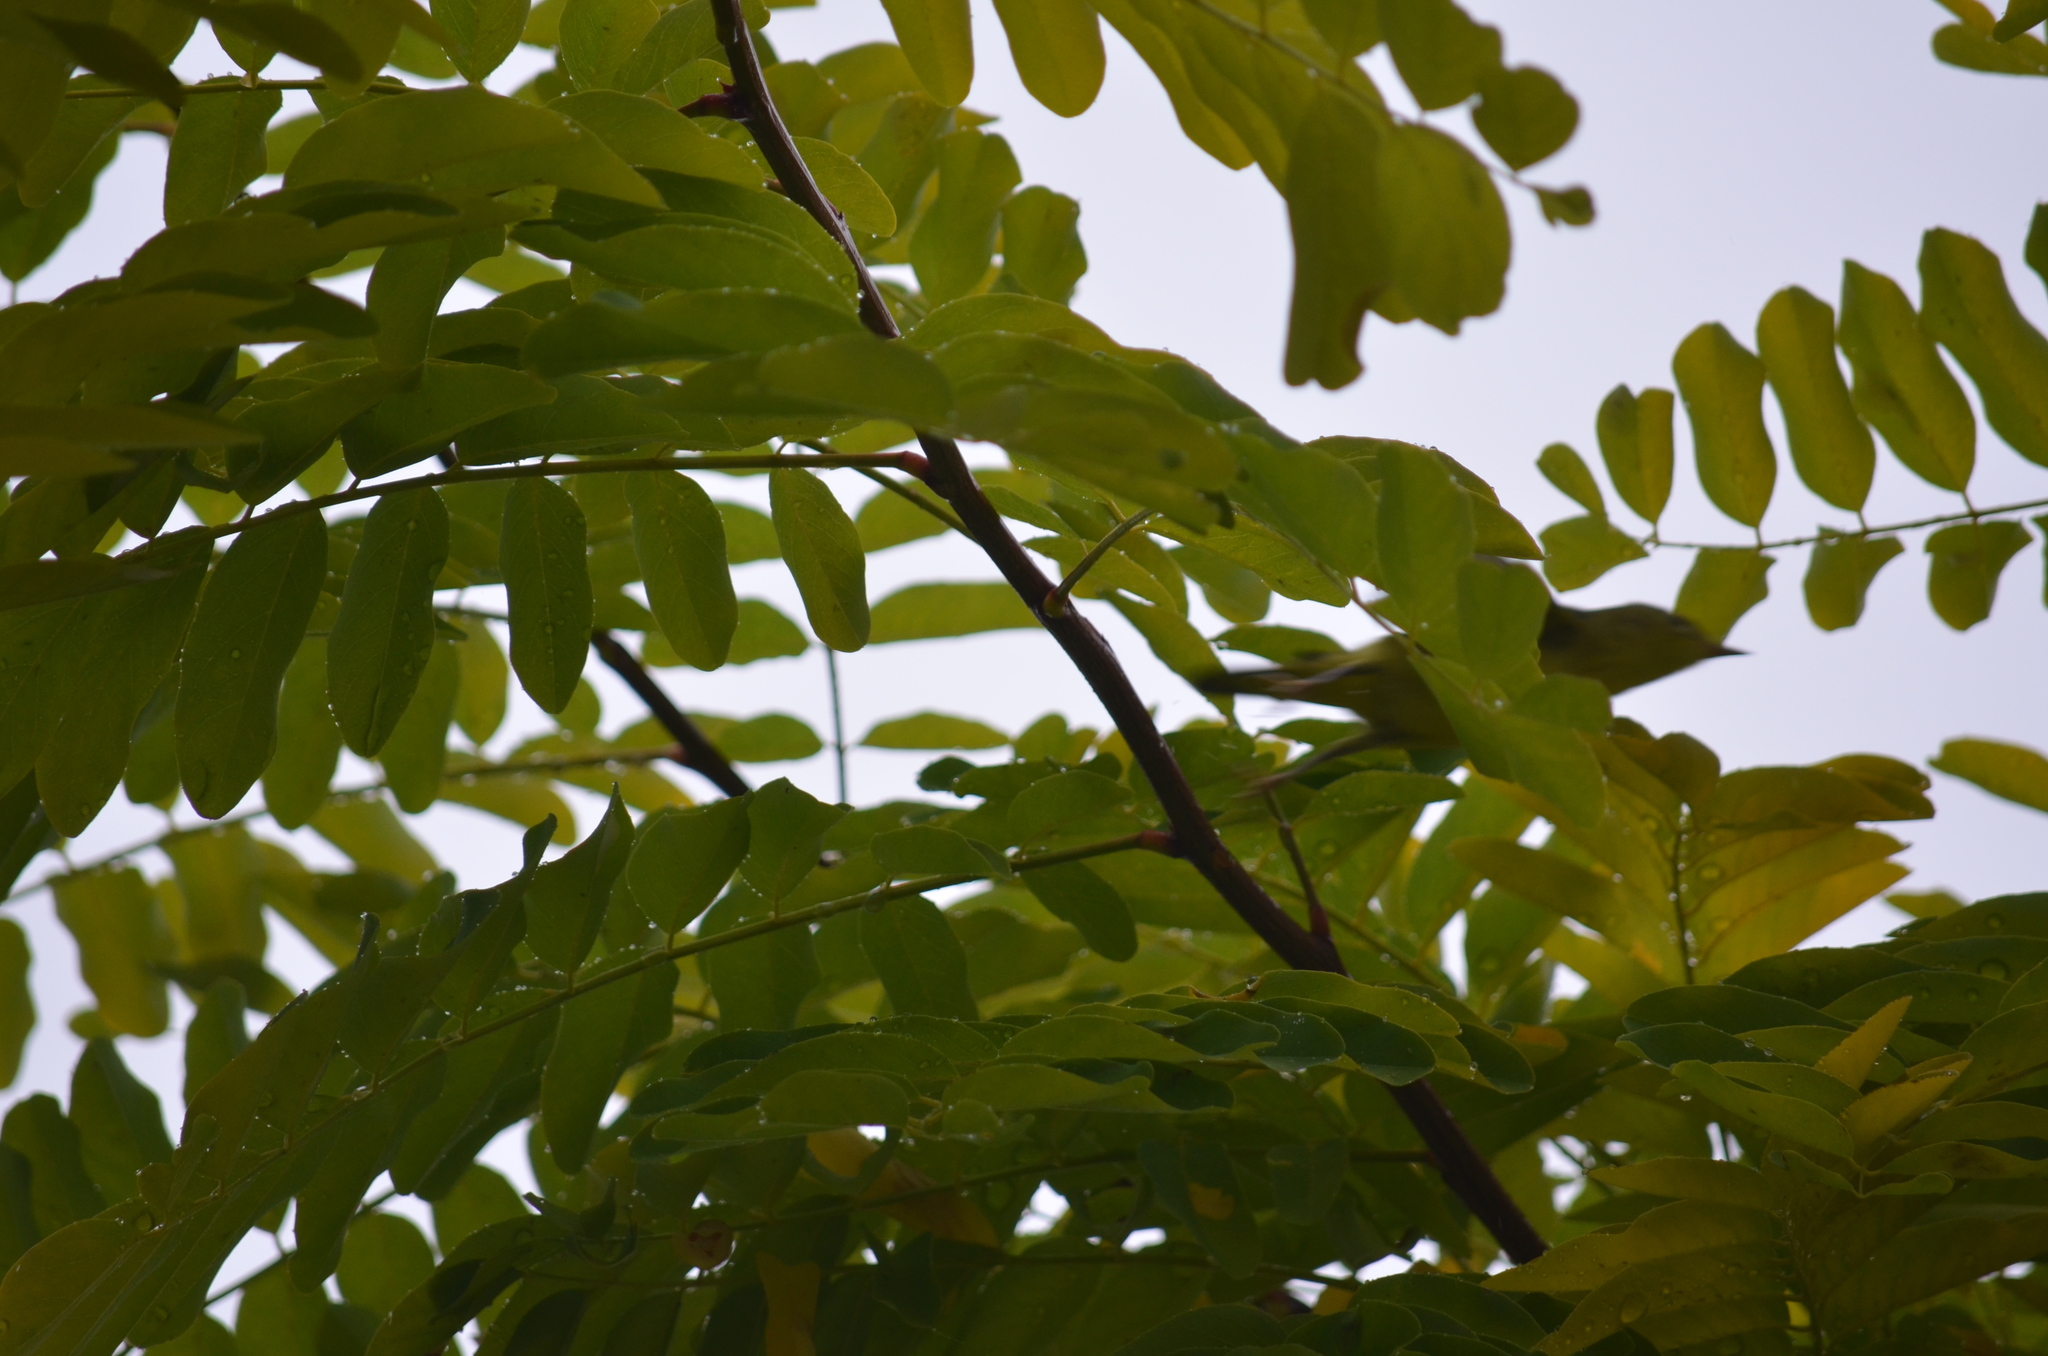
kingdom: Animalia
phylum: Chordata
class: Aves
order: Passeriformes
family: Parulidae
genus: Setophaga
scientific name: Setophaga petechia
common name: Yellow warbler
